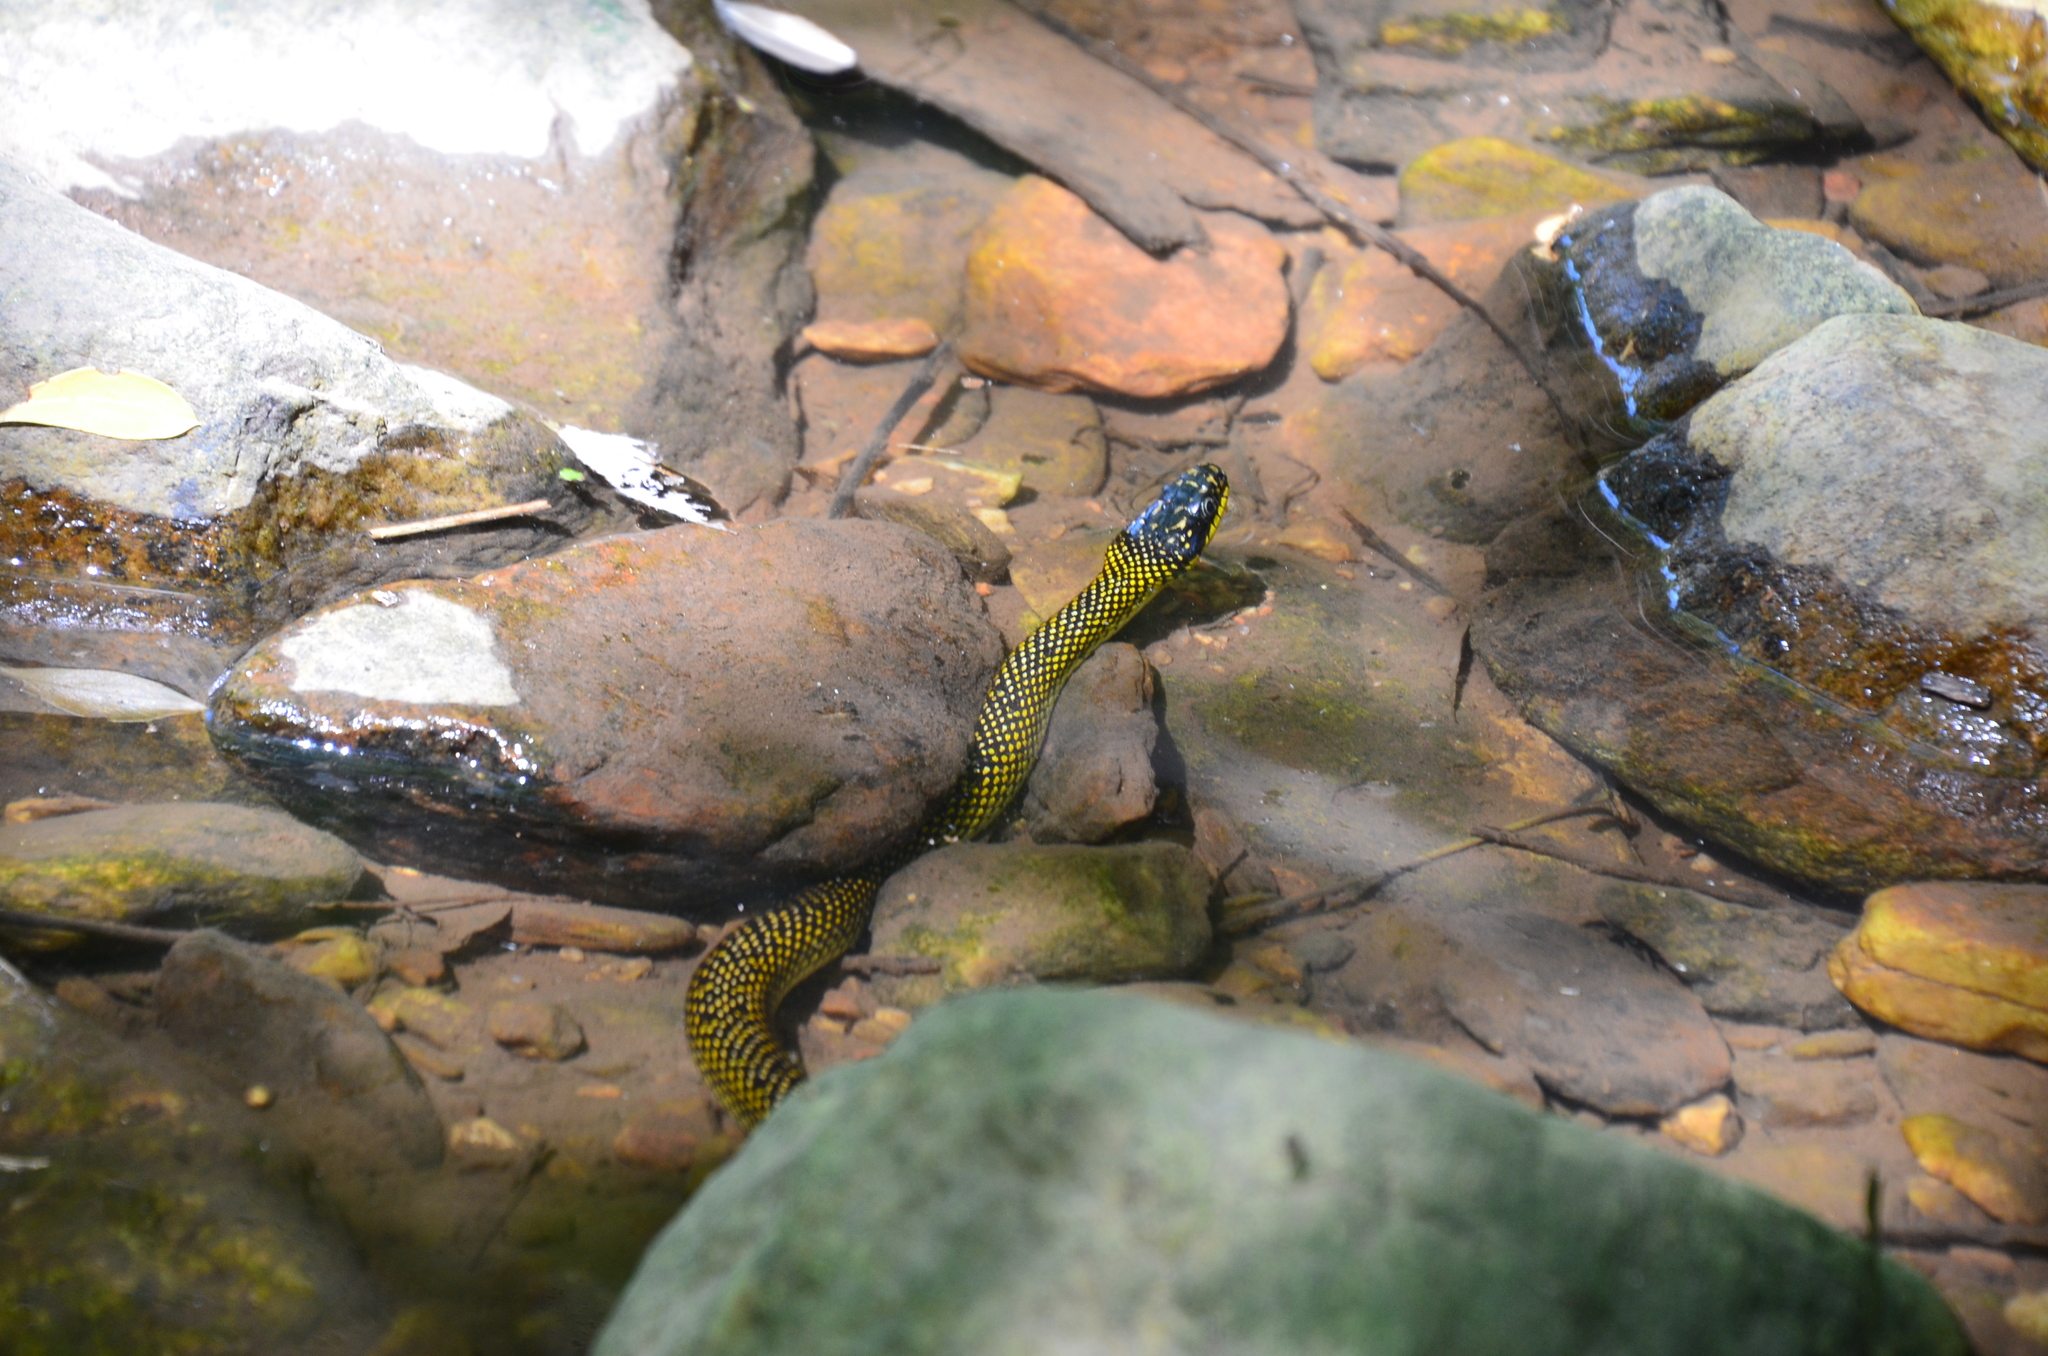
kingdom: Animalia
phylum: Chordata
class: Squamata
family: Colubridae
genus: Erythrolamprus
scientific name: Erythrolamprus poecilogyrus
